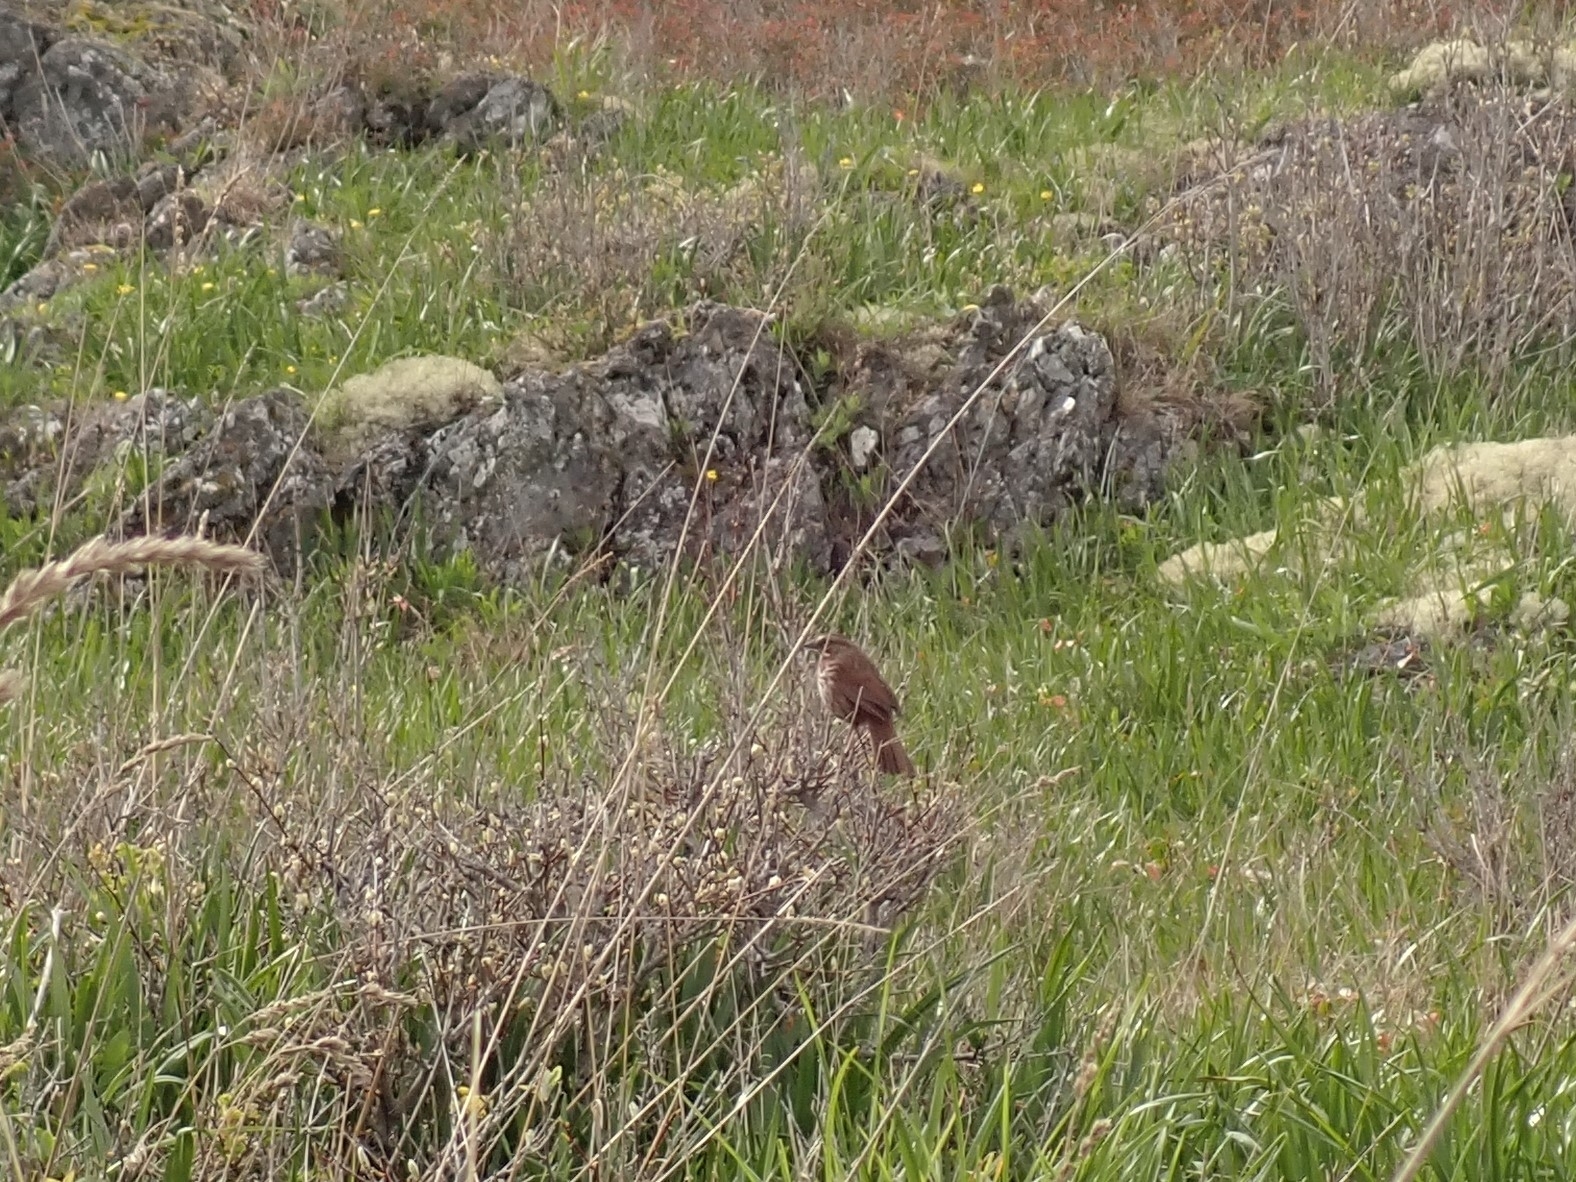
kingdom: Animalia
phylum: Chordata
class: Aves
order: Passeriformes
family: Passerellidae
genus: Melospiza
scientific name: Melospiza melodia
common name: Song sparrow
